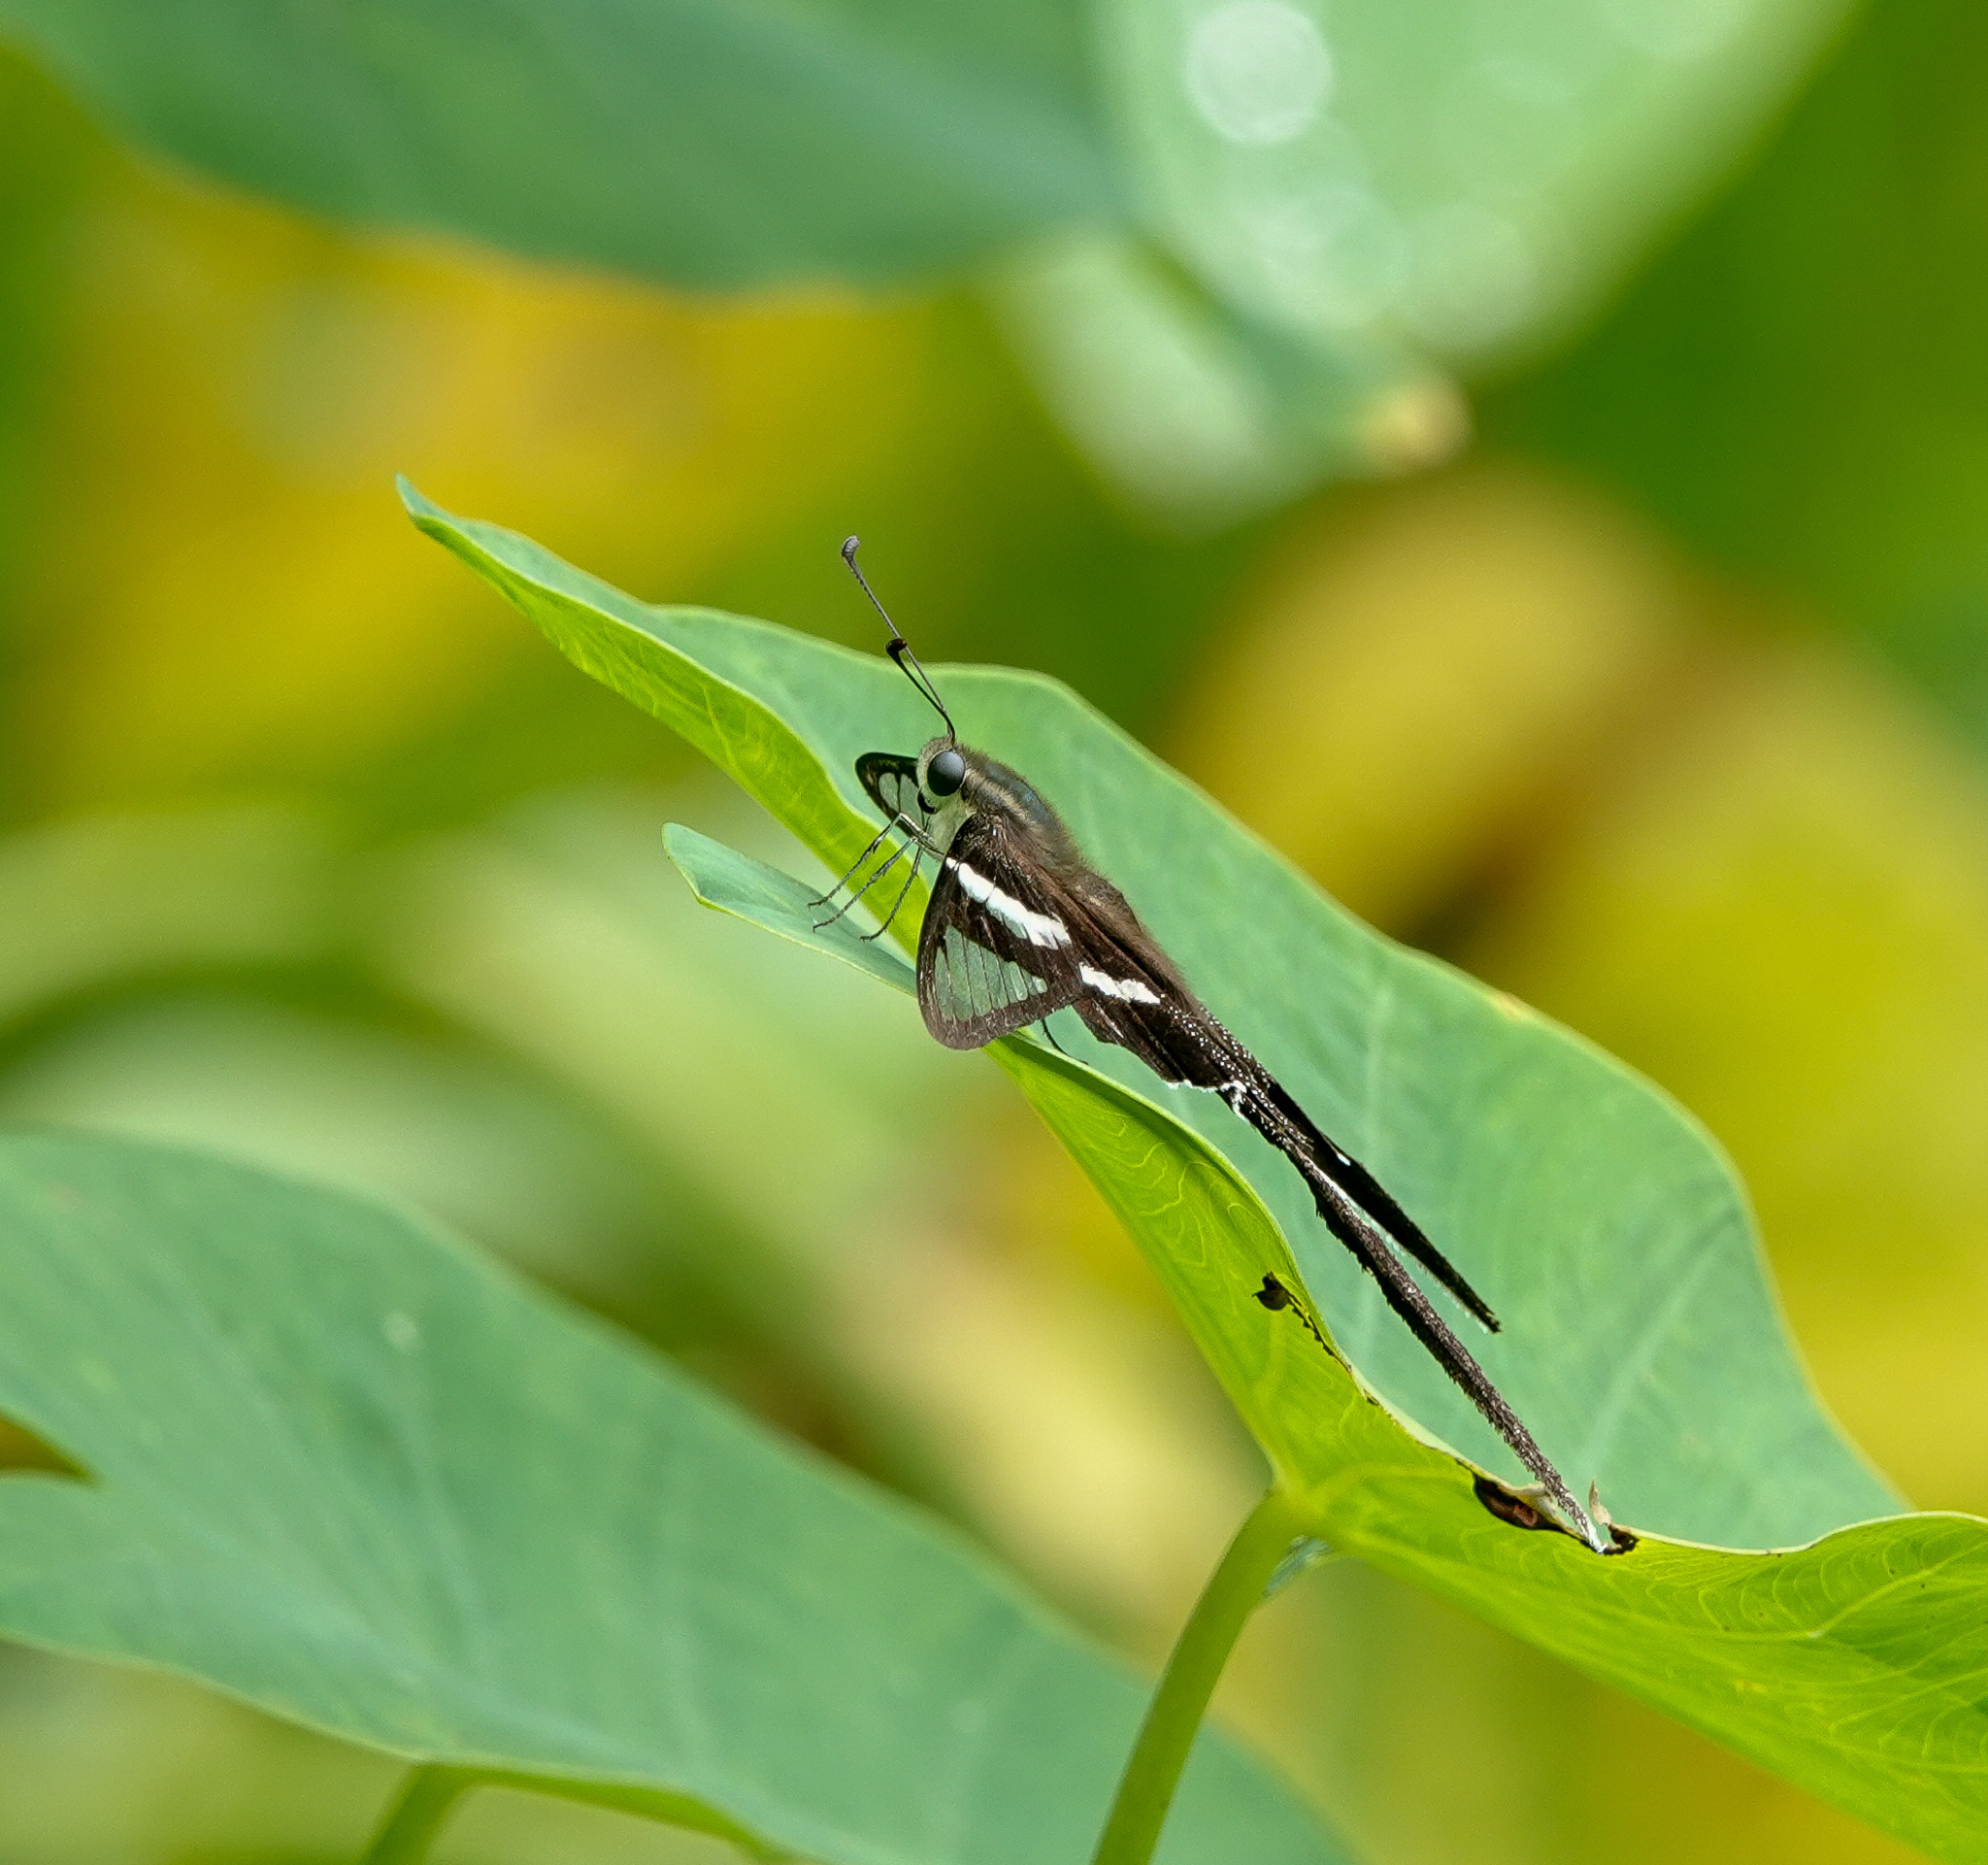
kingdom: Animalia
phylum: Arthropoda
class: Insecta
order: Lepidoptera
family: Papilionidae
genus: Lamproptera
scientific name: Lamproptera curius
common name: White dragontail
